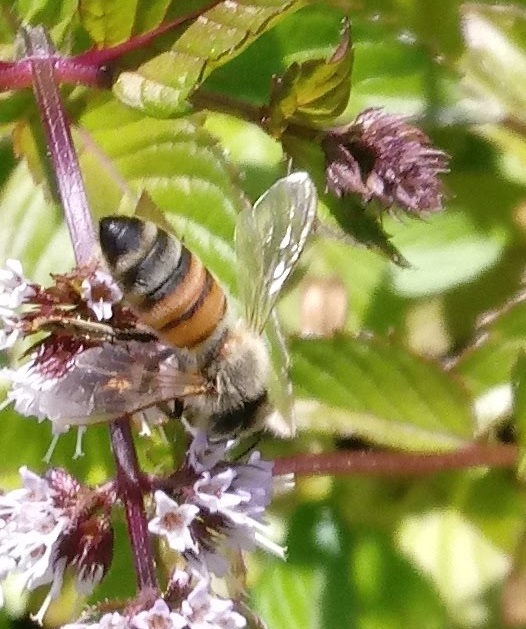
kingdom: Animalia
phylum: Arthropoda
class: Insecta
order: Hymenoptera
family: Apidae
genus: Apis
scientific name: Apis mellifera
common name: Honey bee
